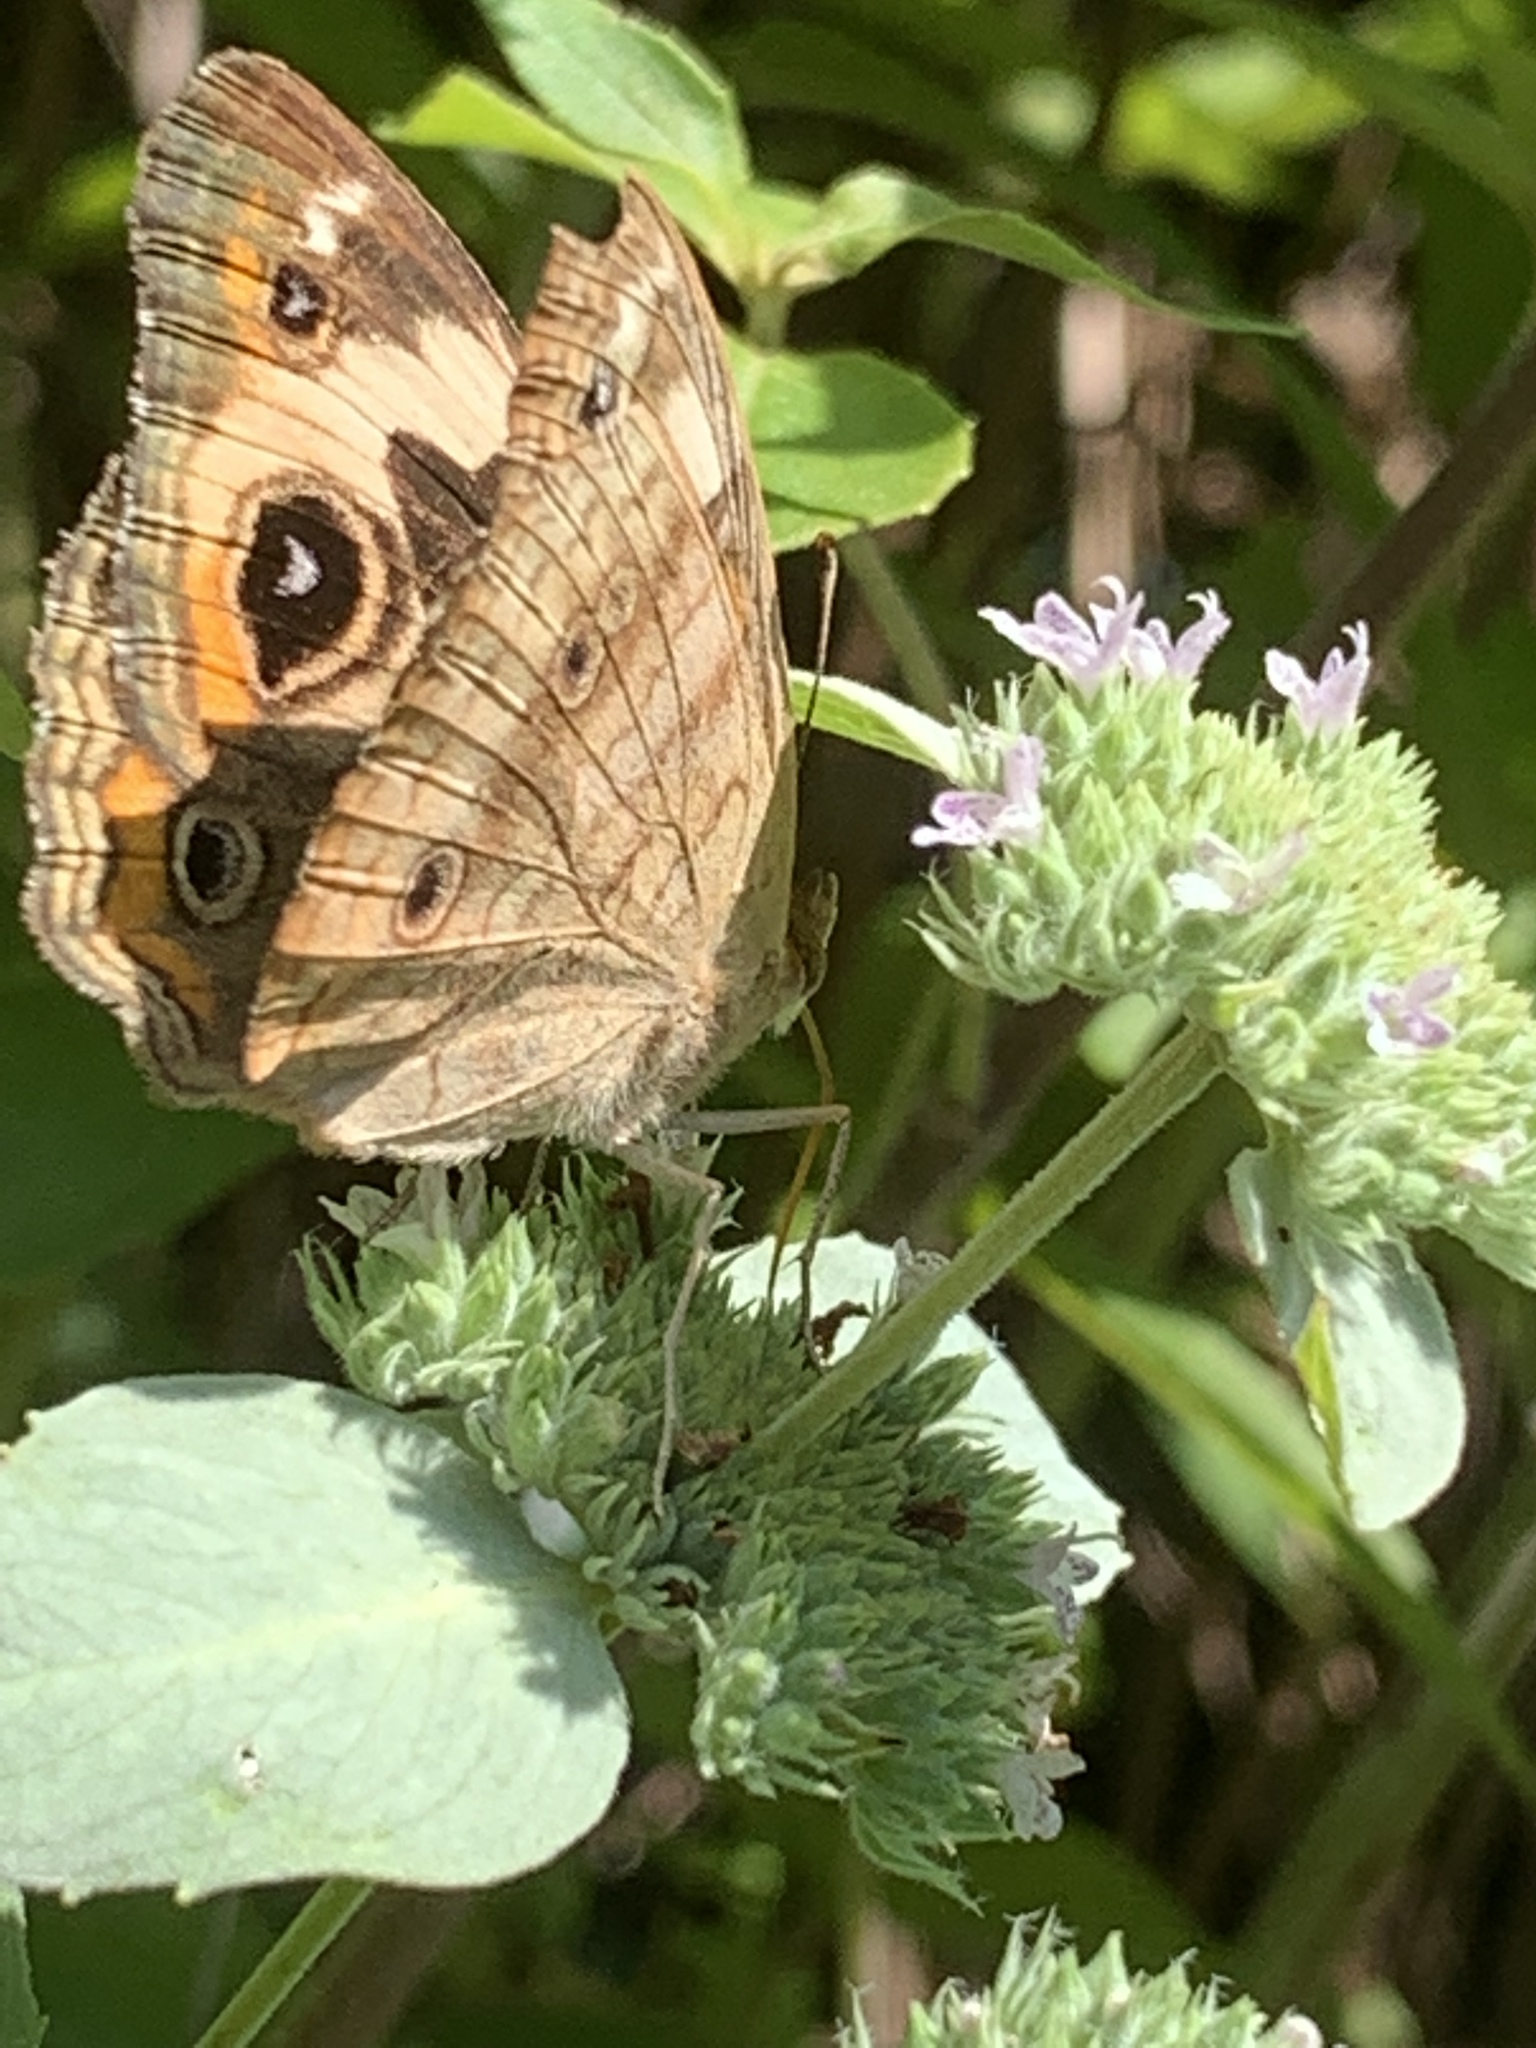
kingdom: Animalia
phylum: Arthropoda
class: Insecta
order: Lepidoptera
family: Nymphalidae
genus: Junonia
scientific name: Junonia coenia
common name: Common buckeye
